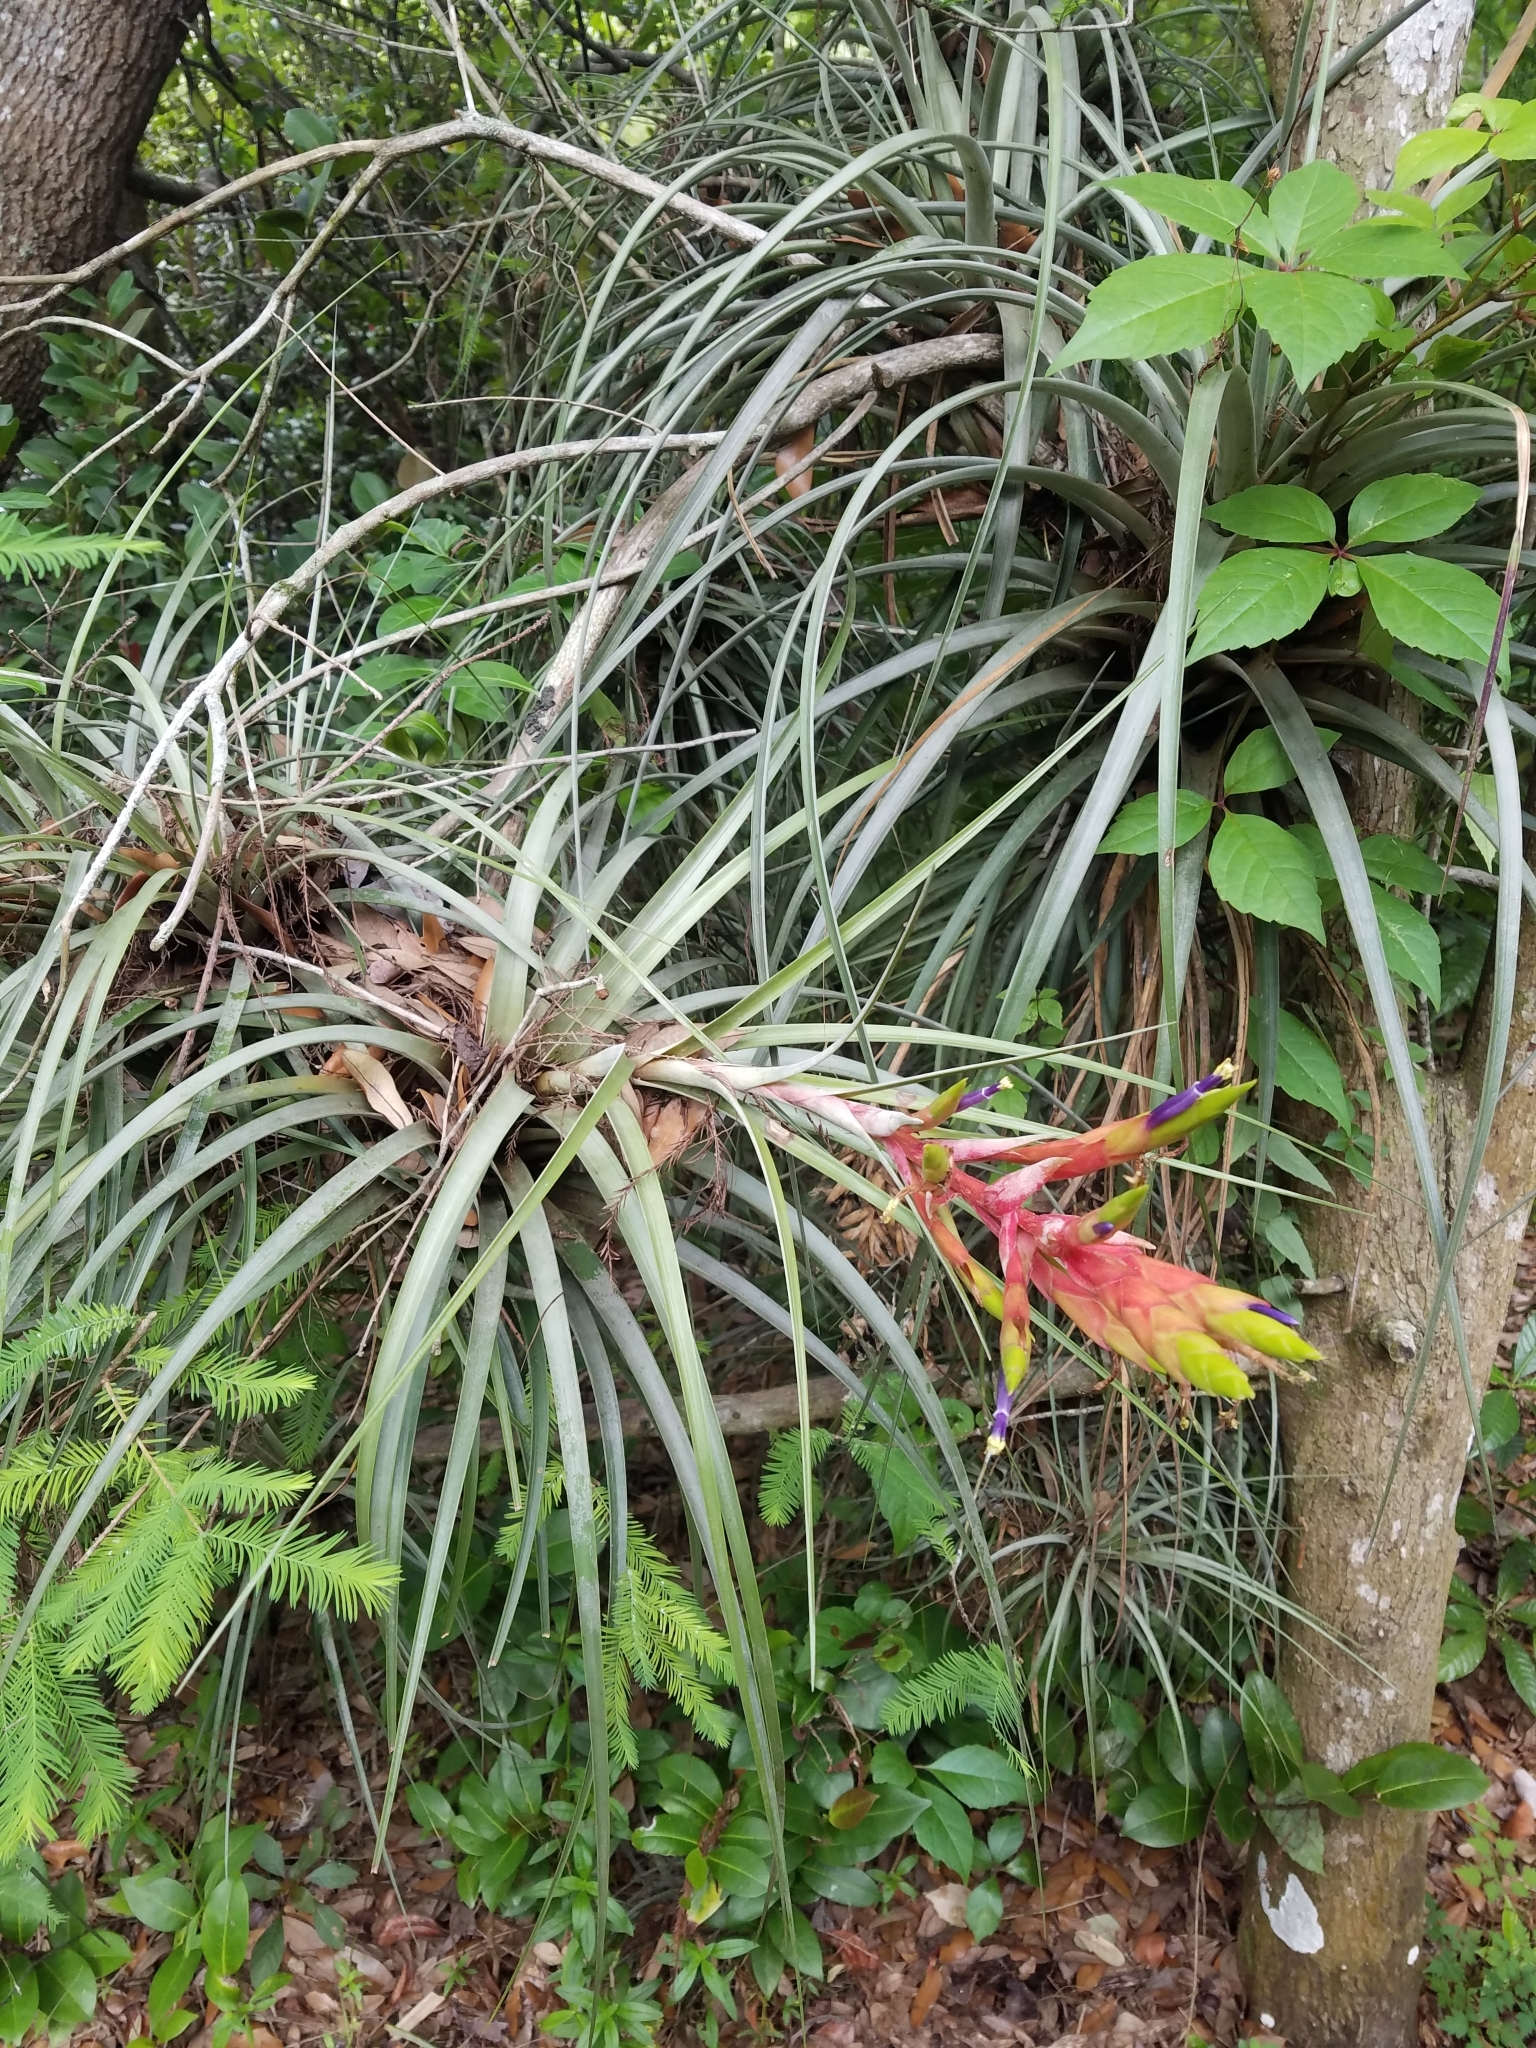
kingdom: Plantae
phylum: Tracheophyta
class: Liliopsida
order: Poales
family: Bromeliaceae
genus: Tillandsia
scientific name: Tillandsia fasciculata
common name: Giant airplant
